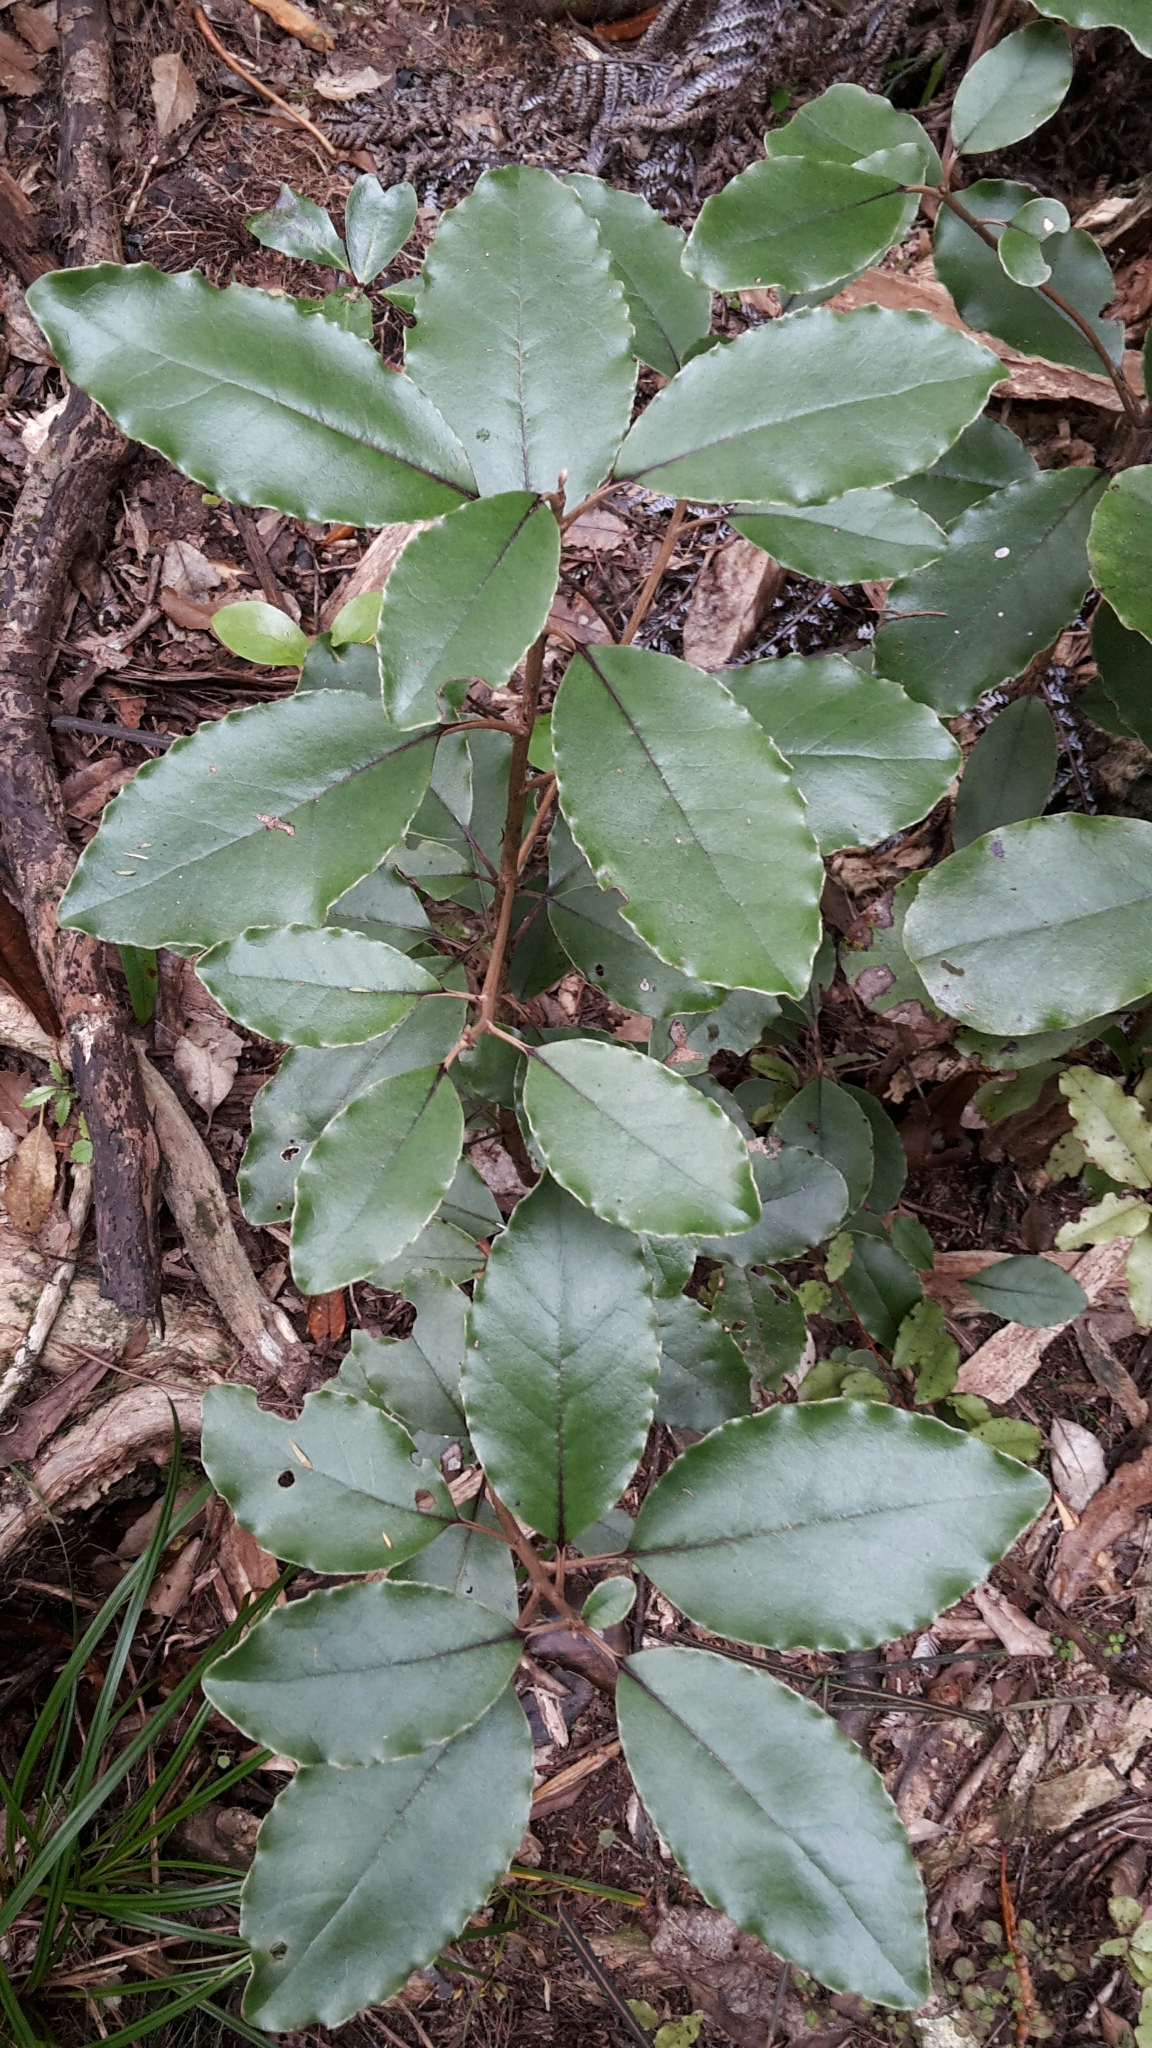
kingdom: Plantae
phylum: Tracheophyta
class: Magnoliopsida
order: Asterales
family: Asteraceae
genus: Olearia
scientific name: Olearia furfuracea
